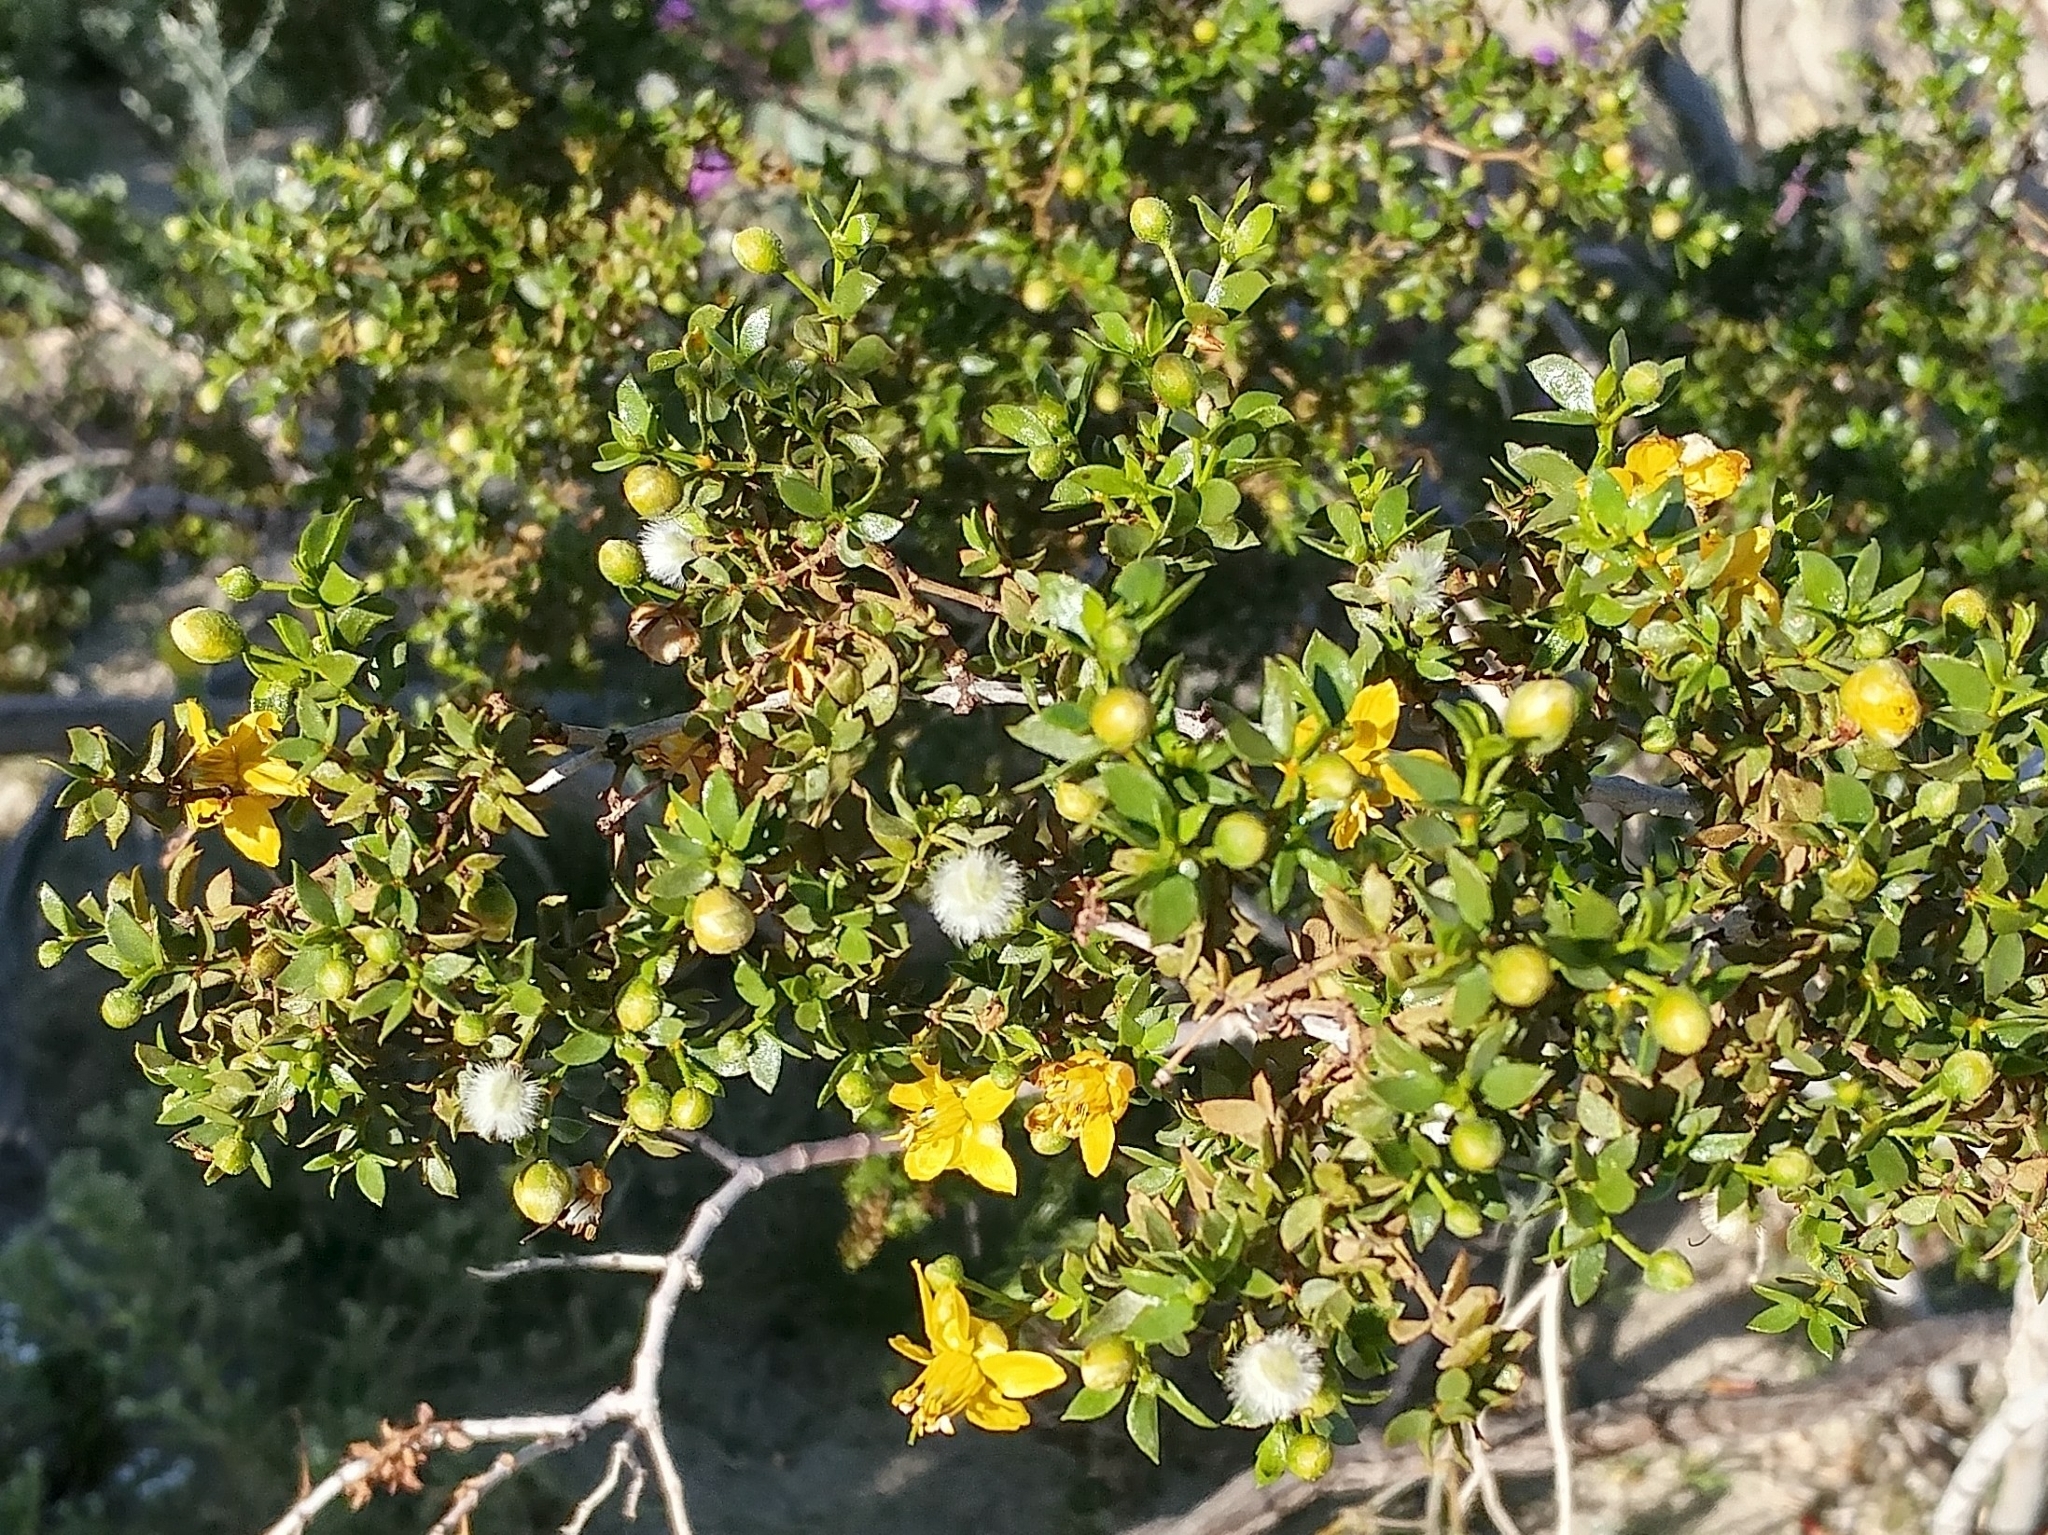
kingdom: Plantae
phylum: Tracheophyta
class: Magnoliopsida
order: Zygophyllales
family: Zygophyllaceae
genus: Larrea
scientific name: Larrea tridentata
